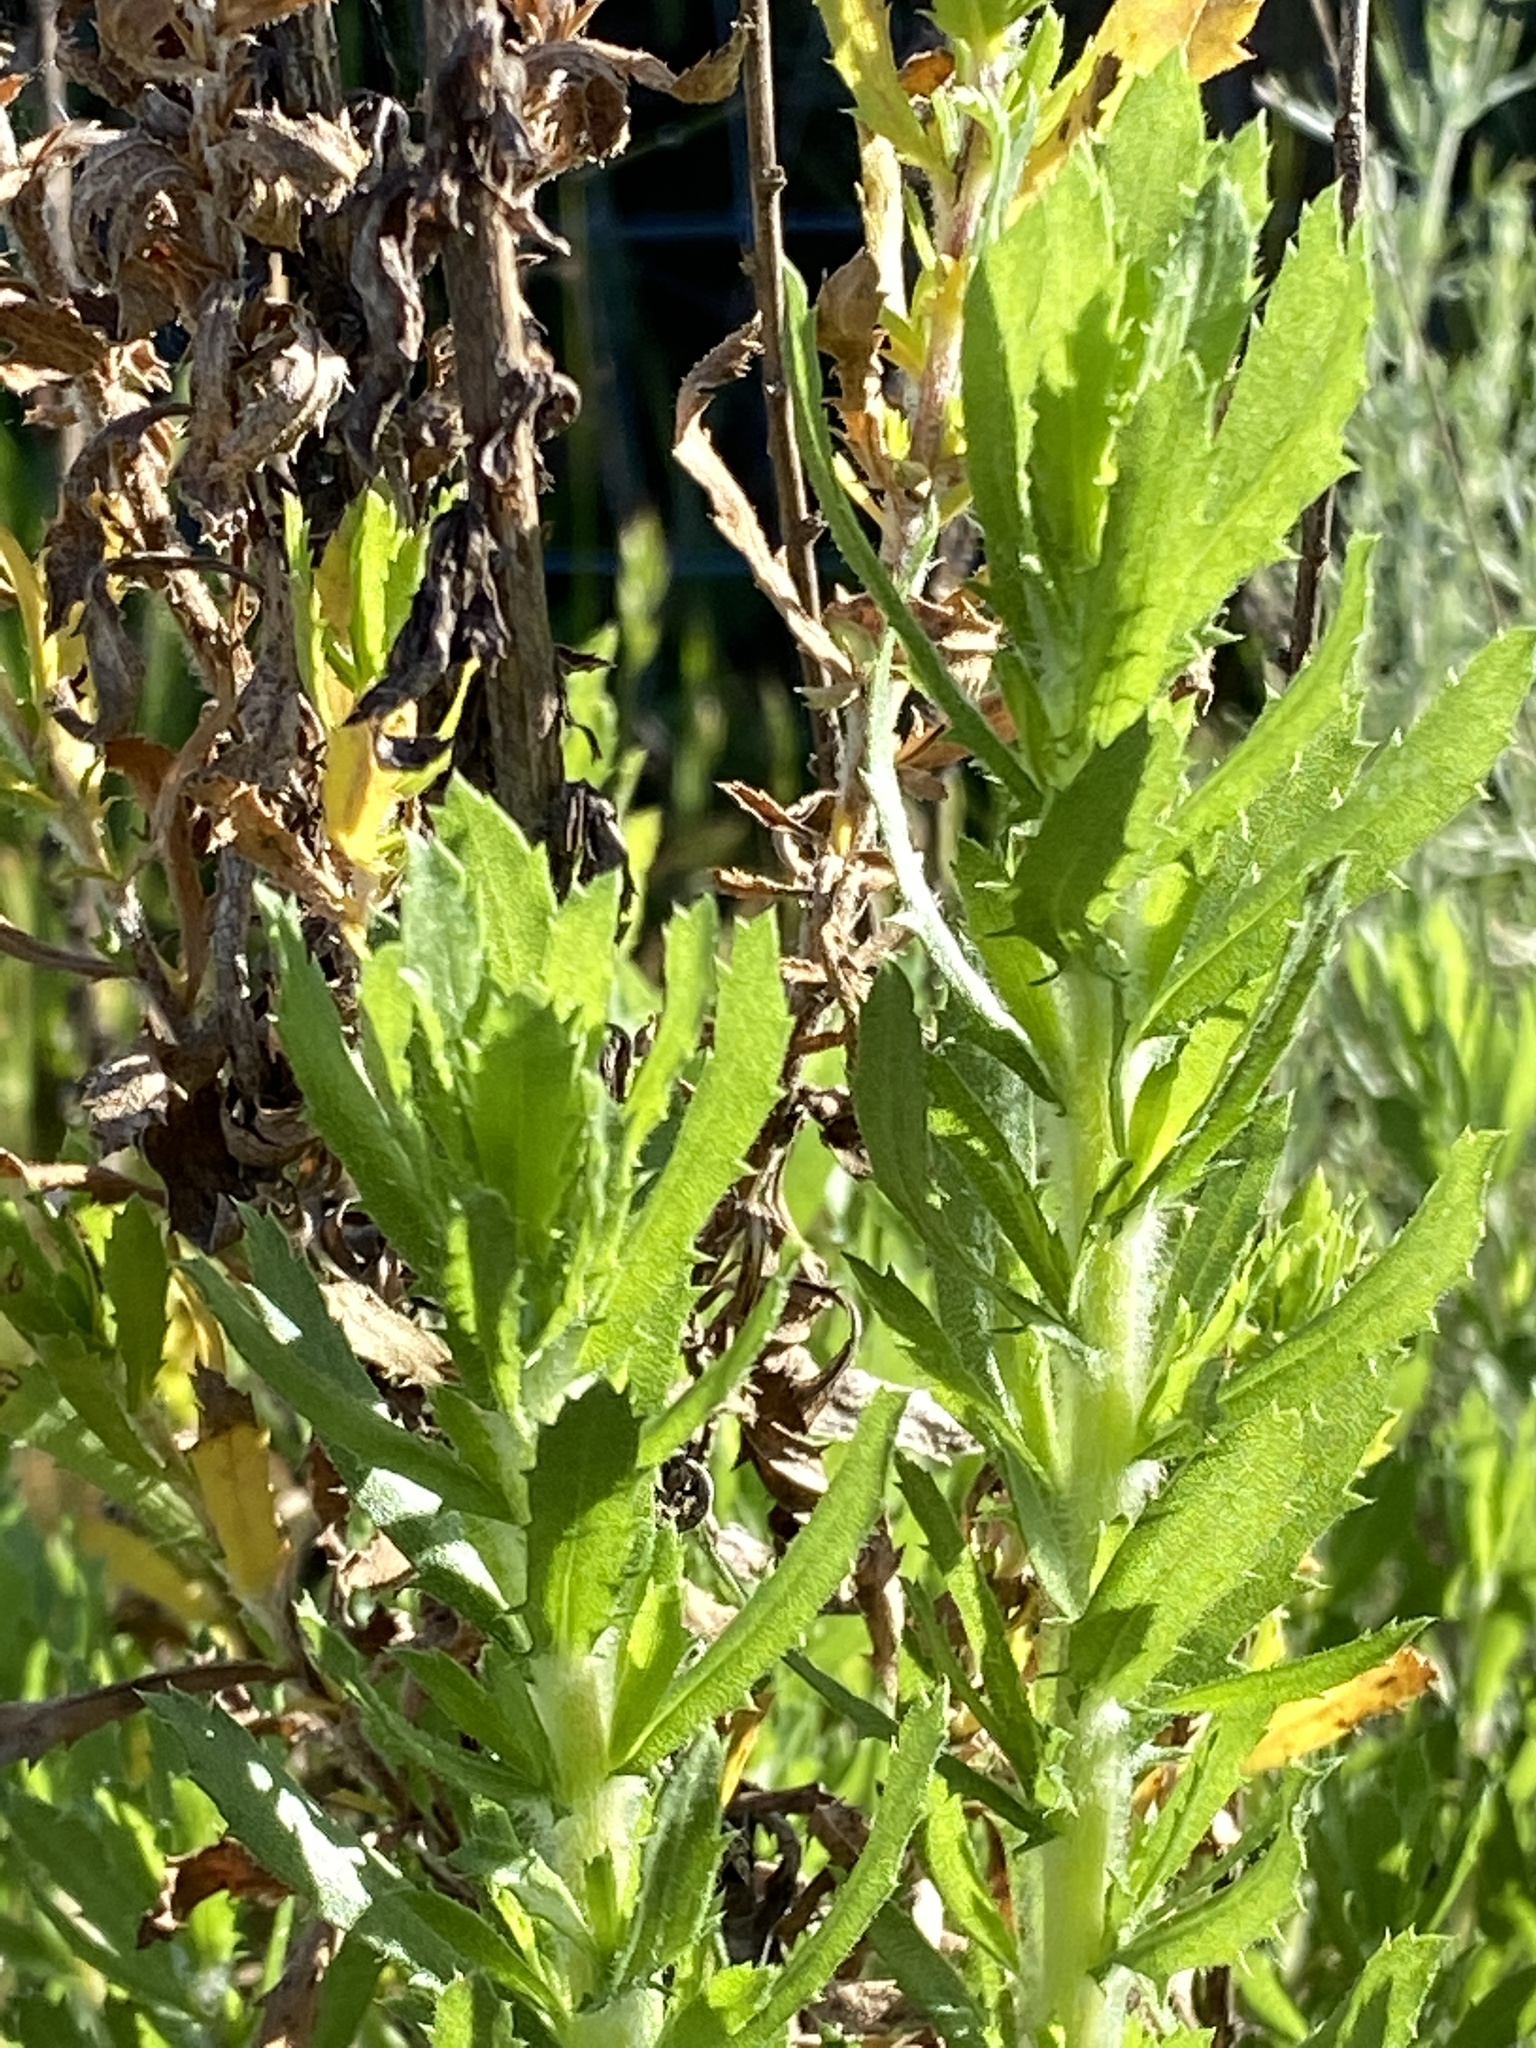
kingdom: Plantae
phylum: Tracheophyta
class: Magnoliopsida
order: Asterales
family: Asteraceae
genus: Isocoma
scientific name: Isocoma menziesii
